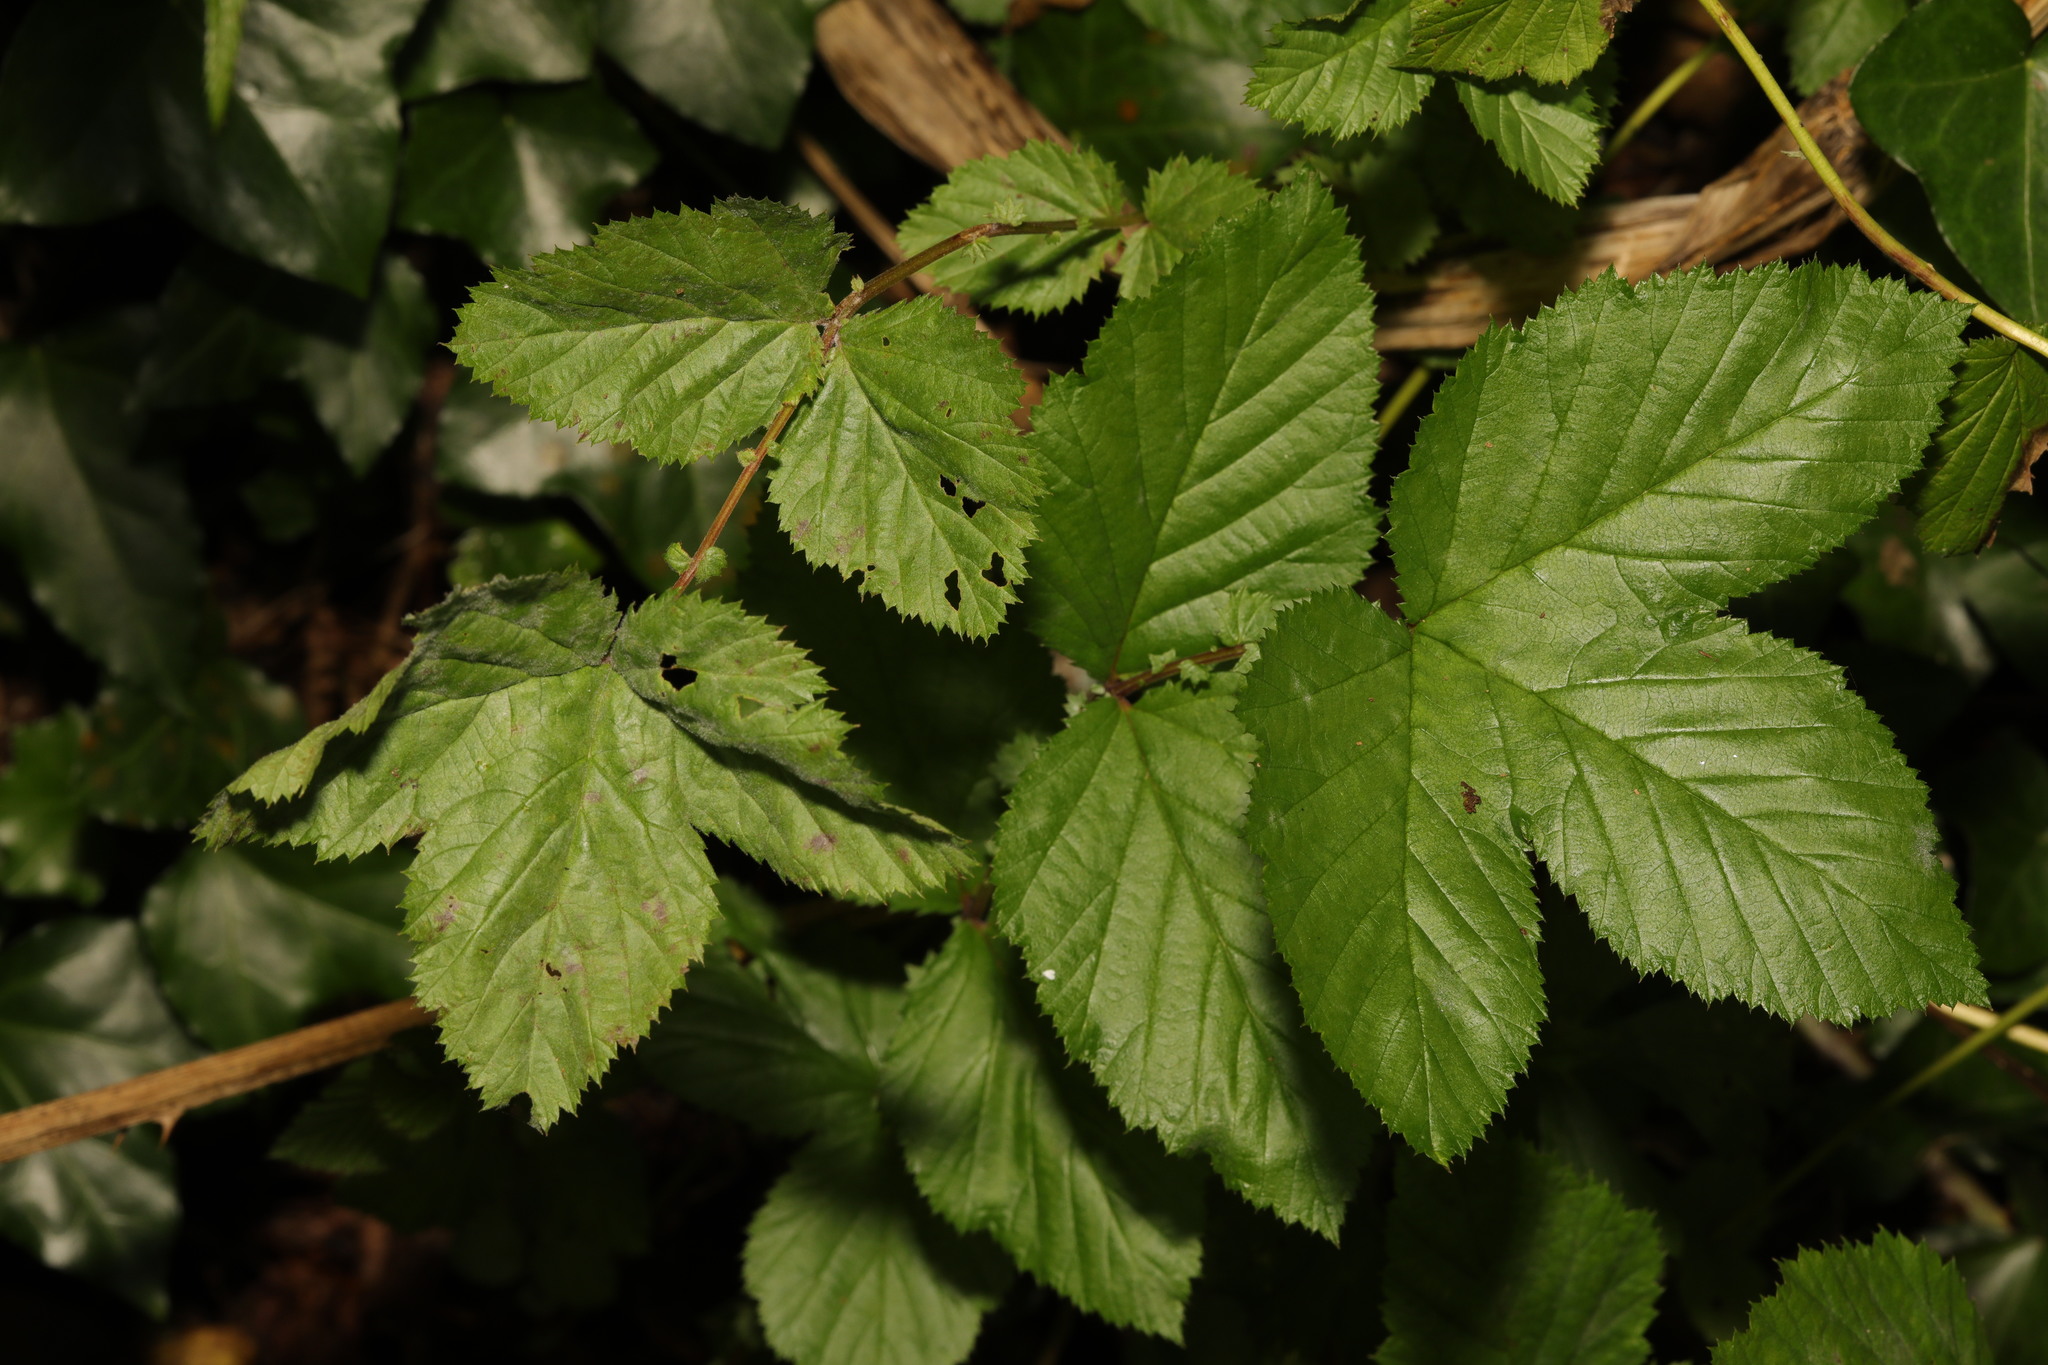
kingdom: Plantae
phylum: Tracheophyta
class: Magnoliopsida
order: Rosales
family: Rosaceae
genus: Filipendula
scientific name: Filipendula ulmaria
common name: Meadowsweet
